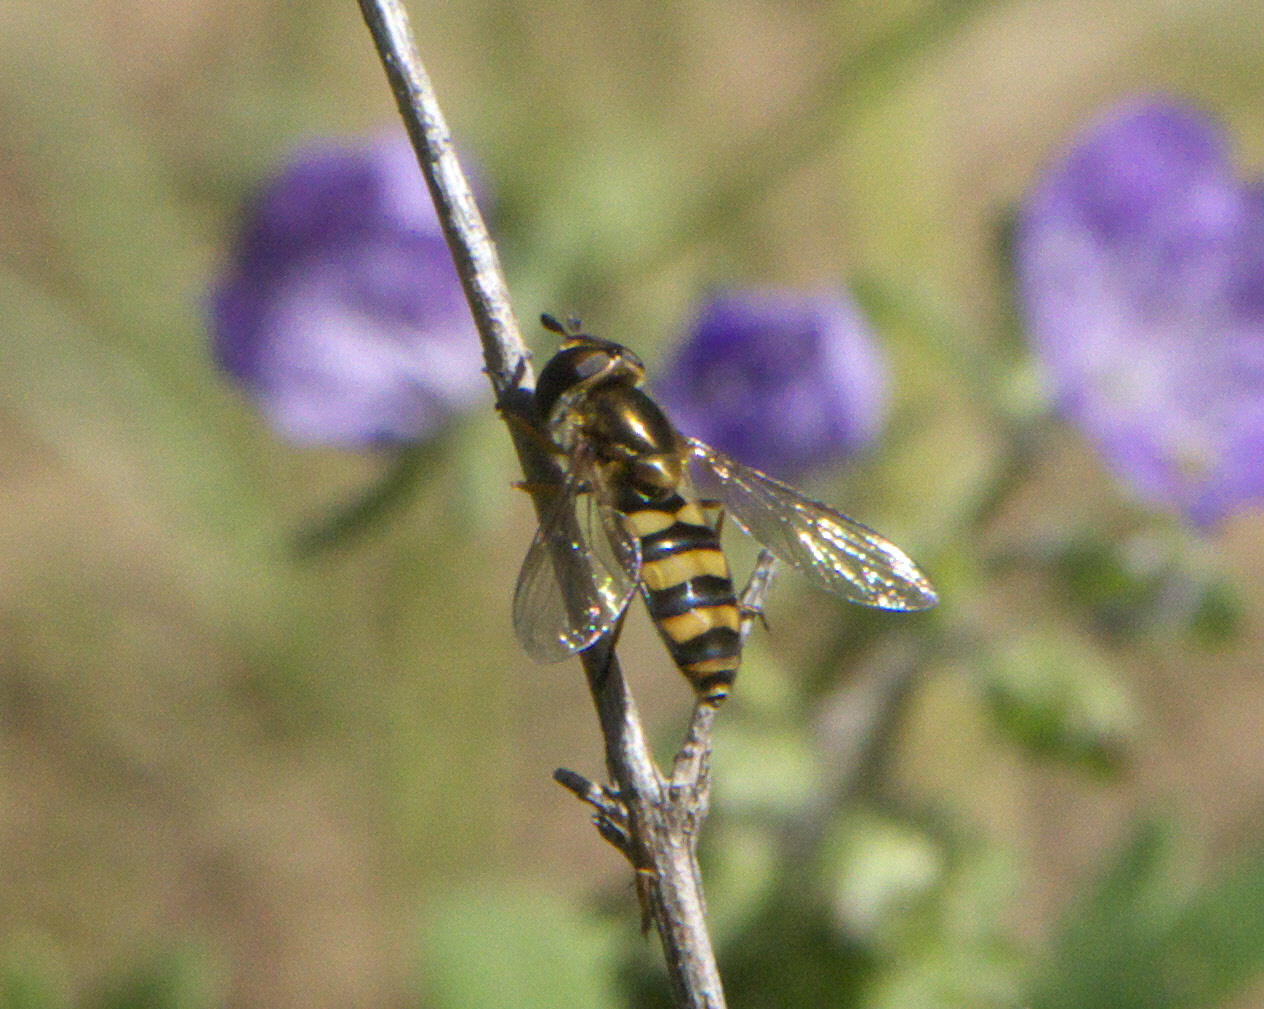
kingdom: Animalia
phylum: Arthropoda
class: Insecta
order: Diptera
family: Syrphidae
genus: Eupeodes
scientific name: Eupeodes
